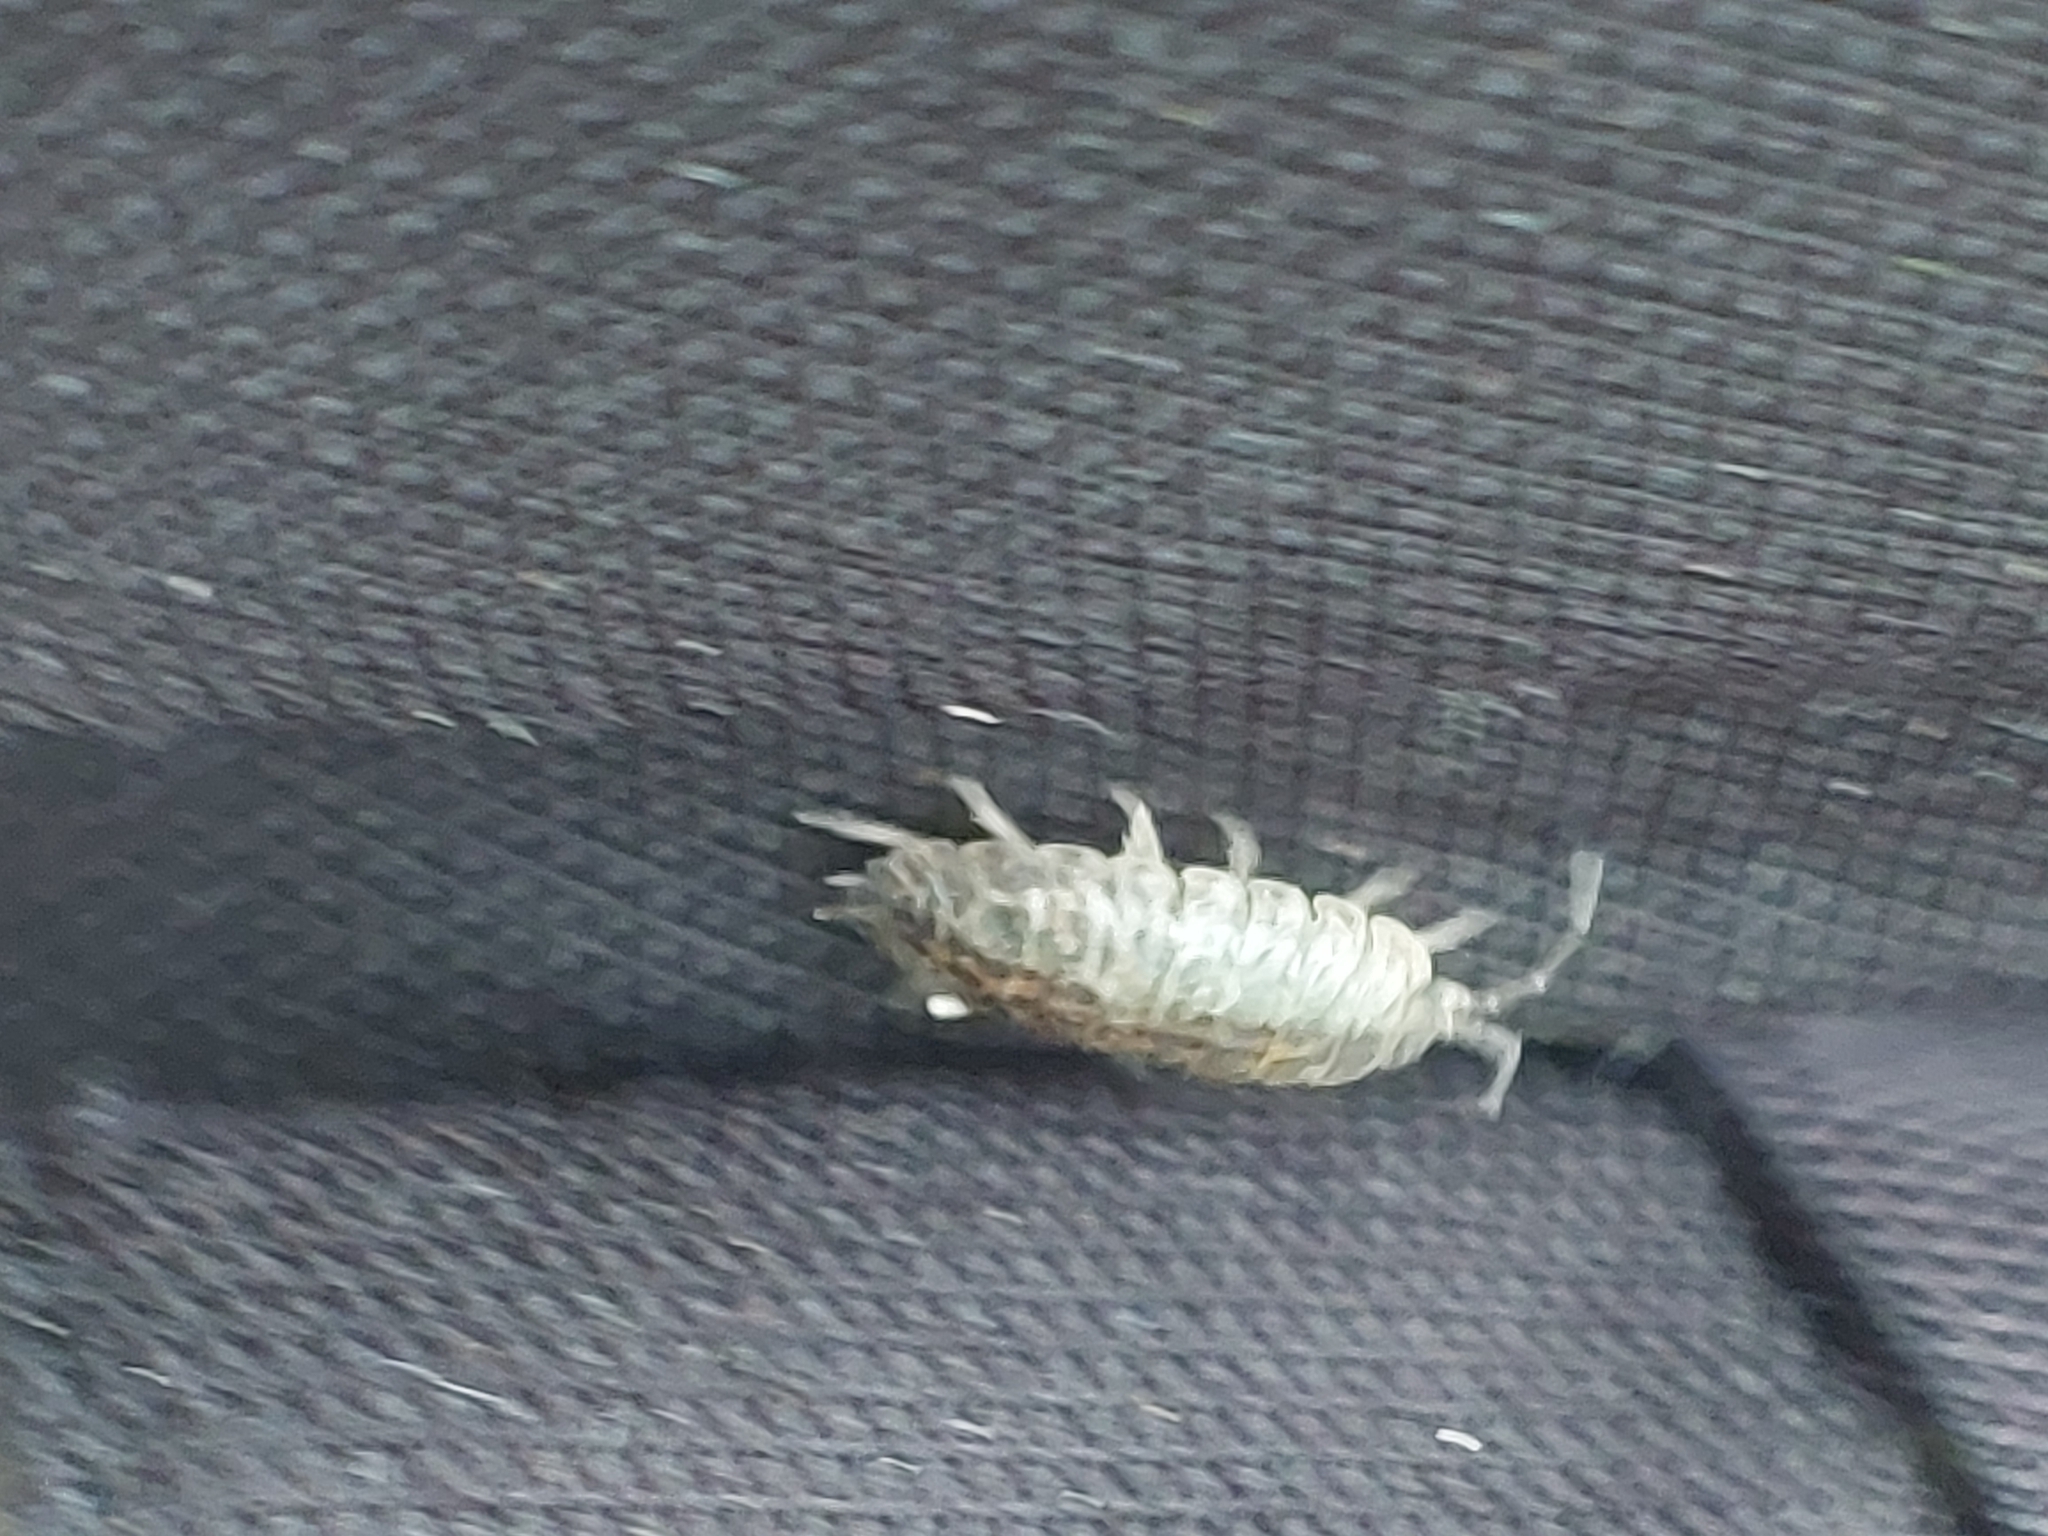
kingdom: Animalia
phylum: Arthropoda
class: Malacostraca
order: Isopoda
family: Trachelipodidae
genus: Trachelipus
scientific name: Trachelipus rathkii
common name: Isopod
